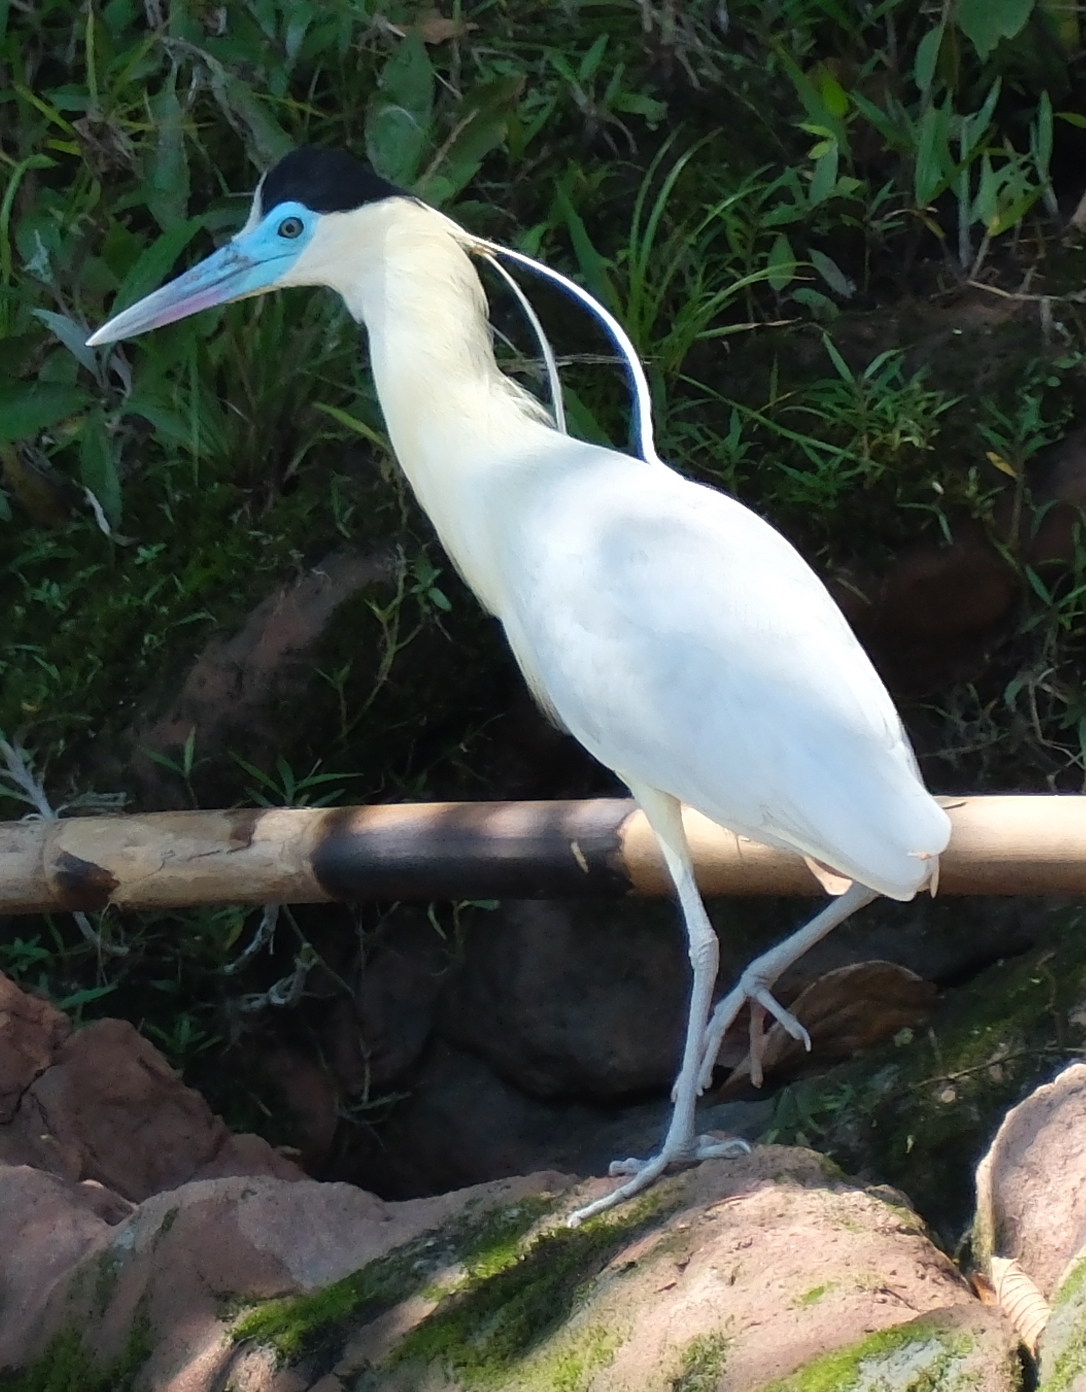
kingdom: Animalia
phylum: Chordata
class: Aves
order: Pelecaniformes
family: Ardeidae
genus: Pilherodius
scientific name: Pilherodius pileatus
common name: Capped heron
